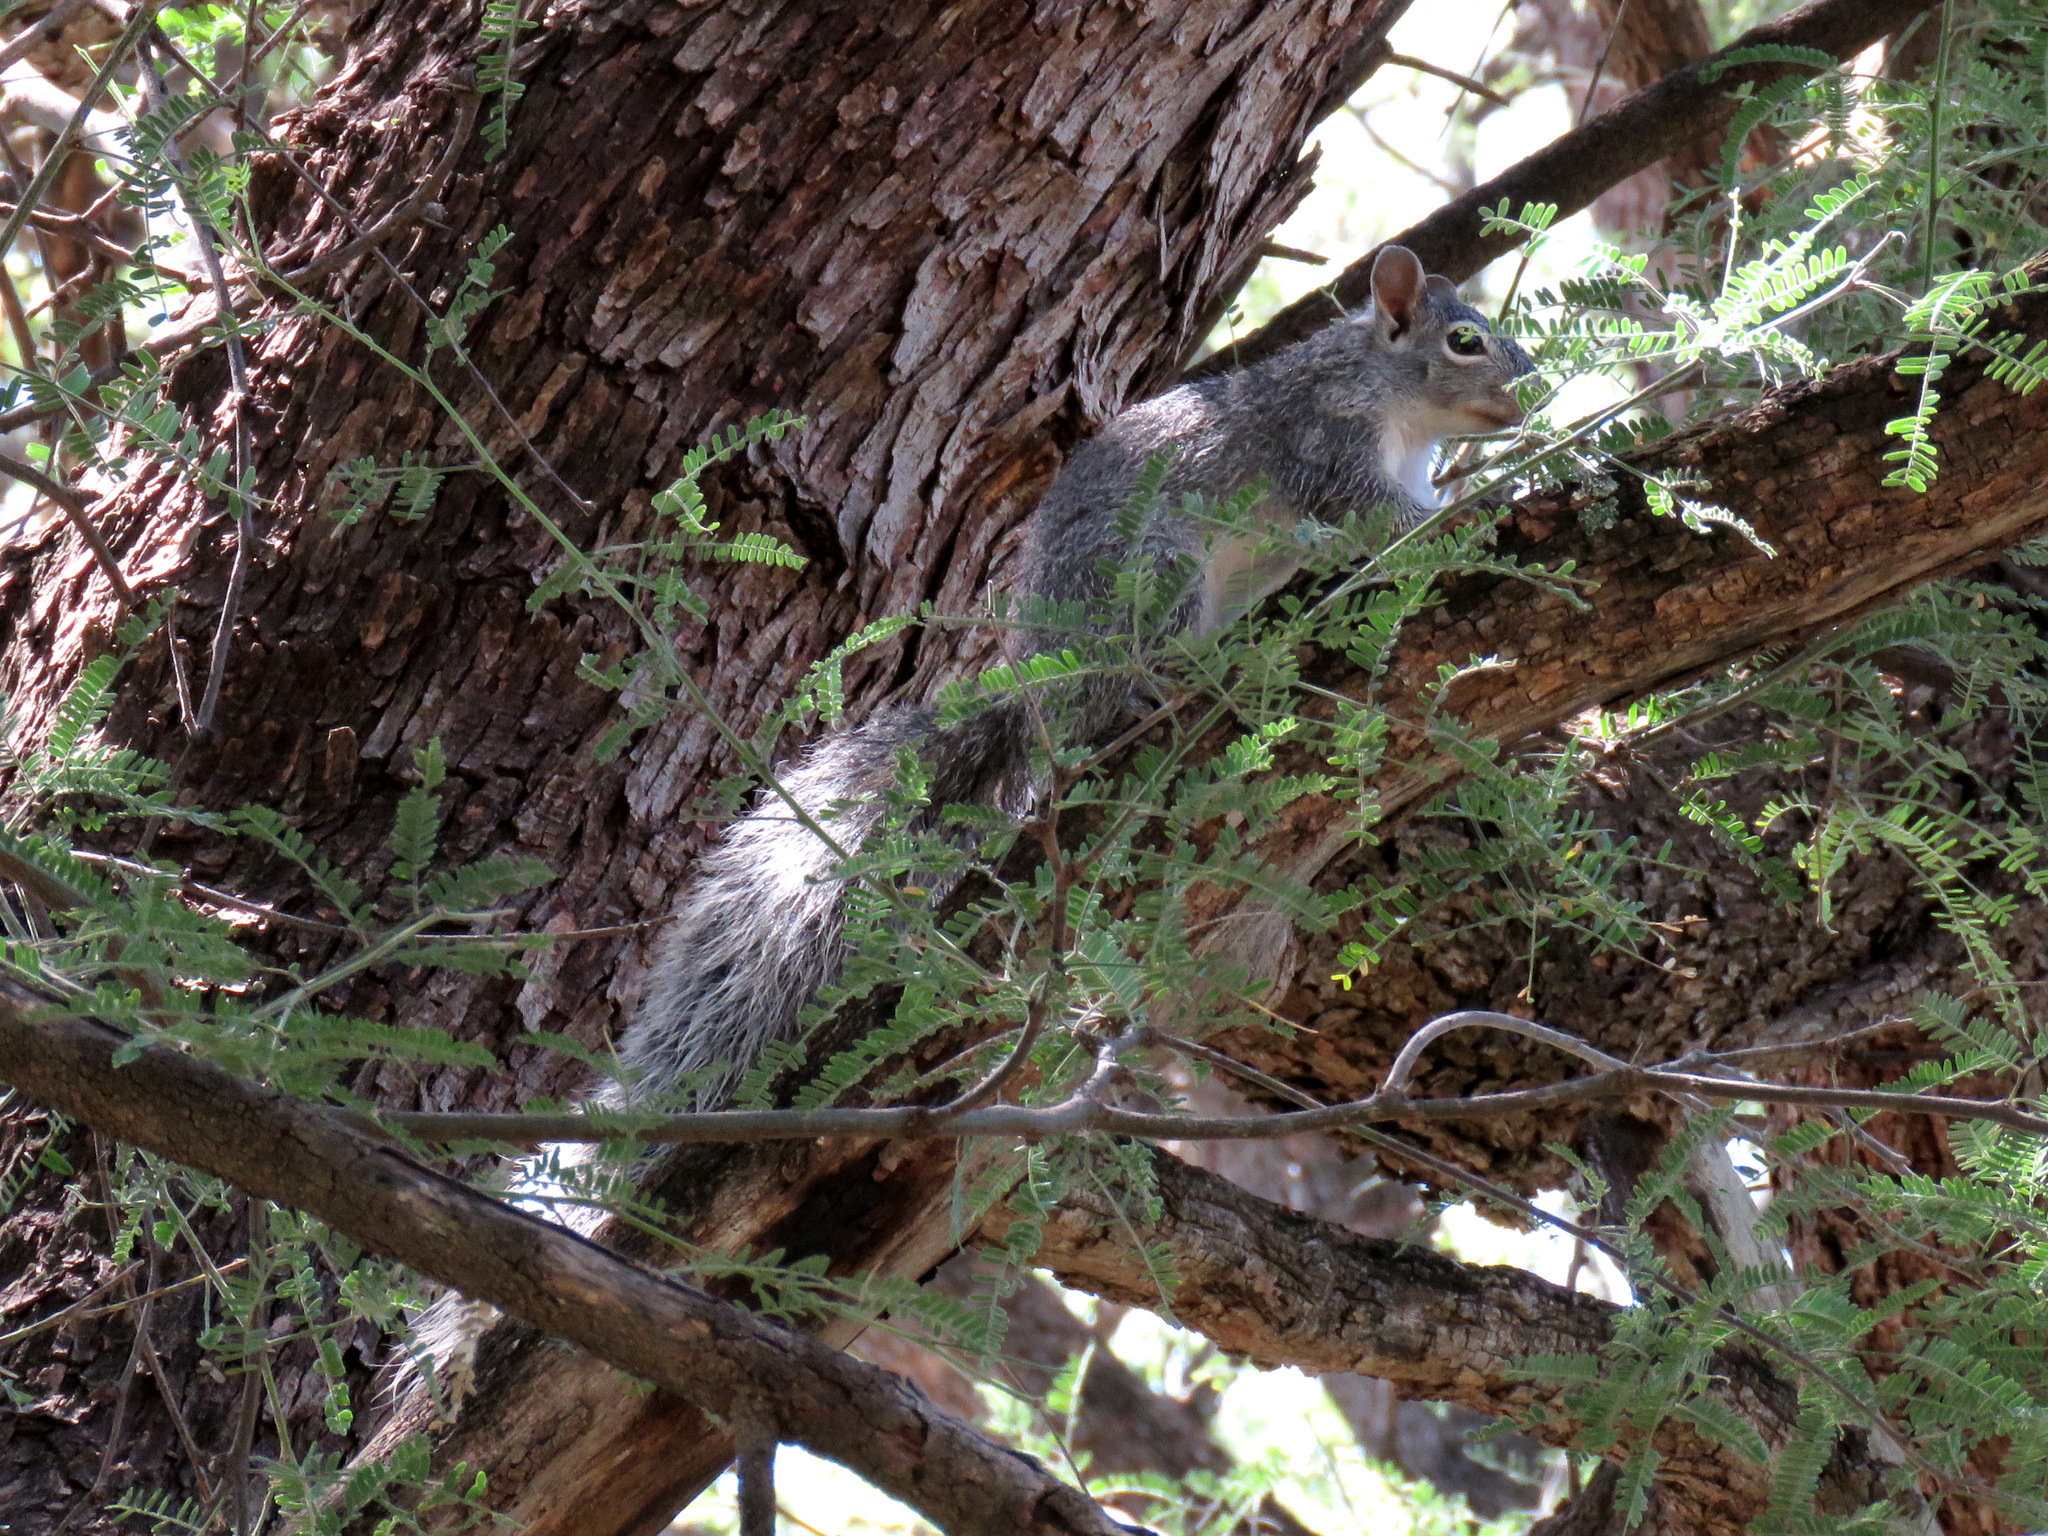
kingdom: Animalia
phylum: Chordata
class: Mammalia
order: Rodentia
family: Sciuridae
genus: Sciurus
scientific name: Sciurus arizonensis
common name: Arizona gray squirrel
